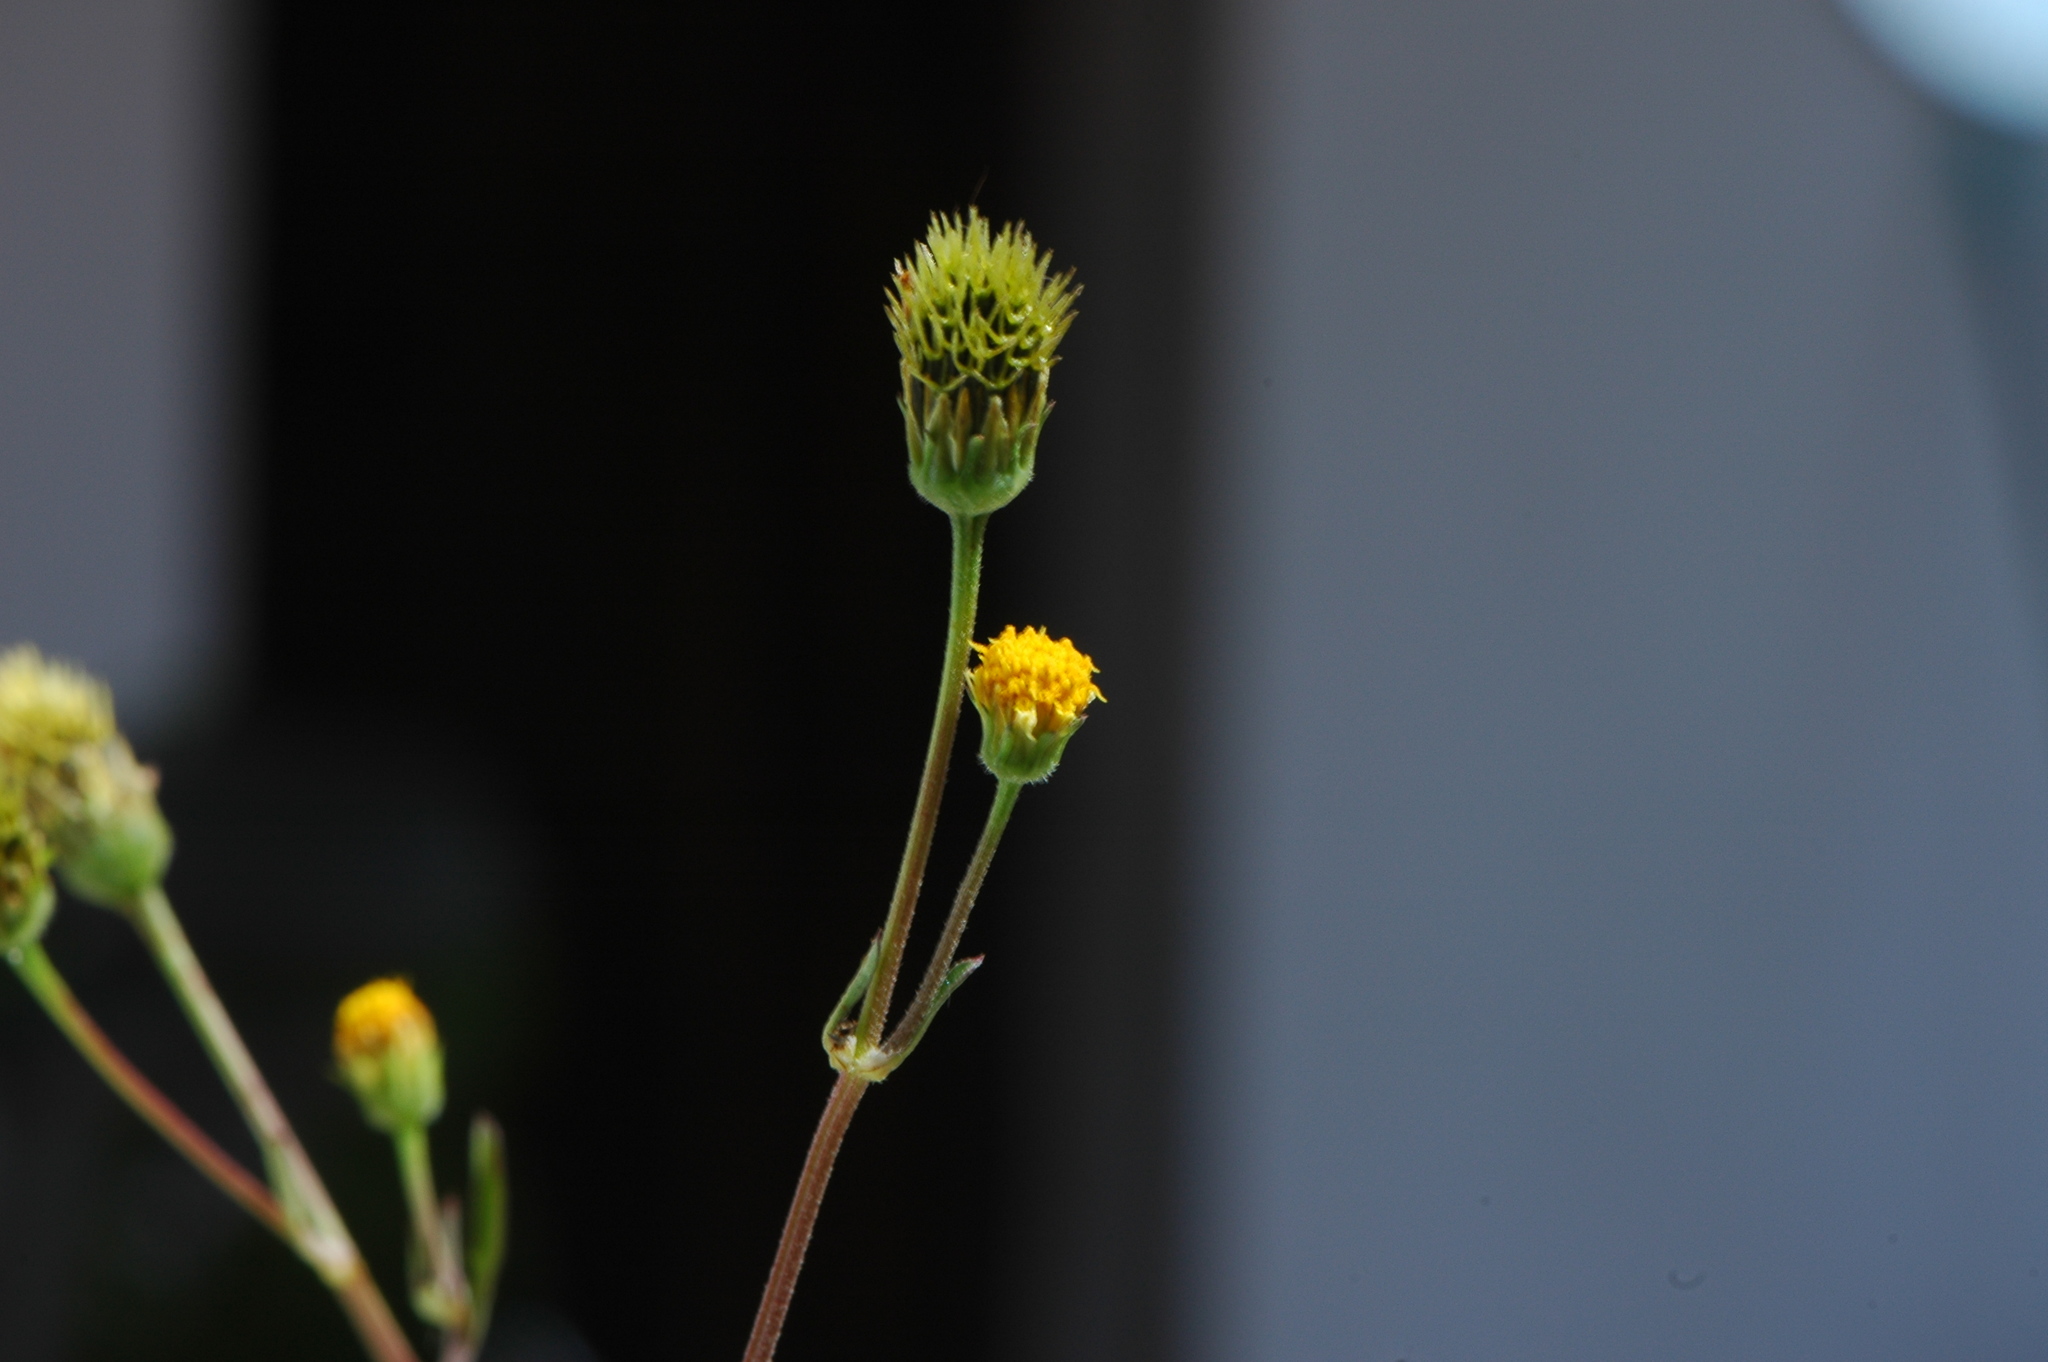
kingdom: Plantae
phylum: Tracheophyta
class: Magnoliopsida
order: Asterales
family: Asteraceae
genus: Bidens
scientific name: Bidens pilosa
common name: Black-jack
